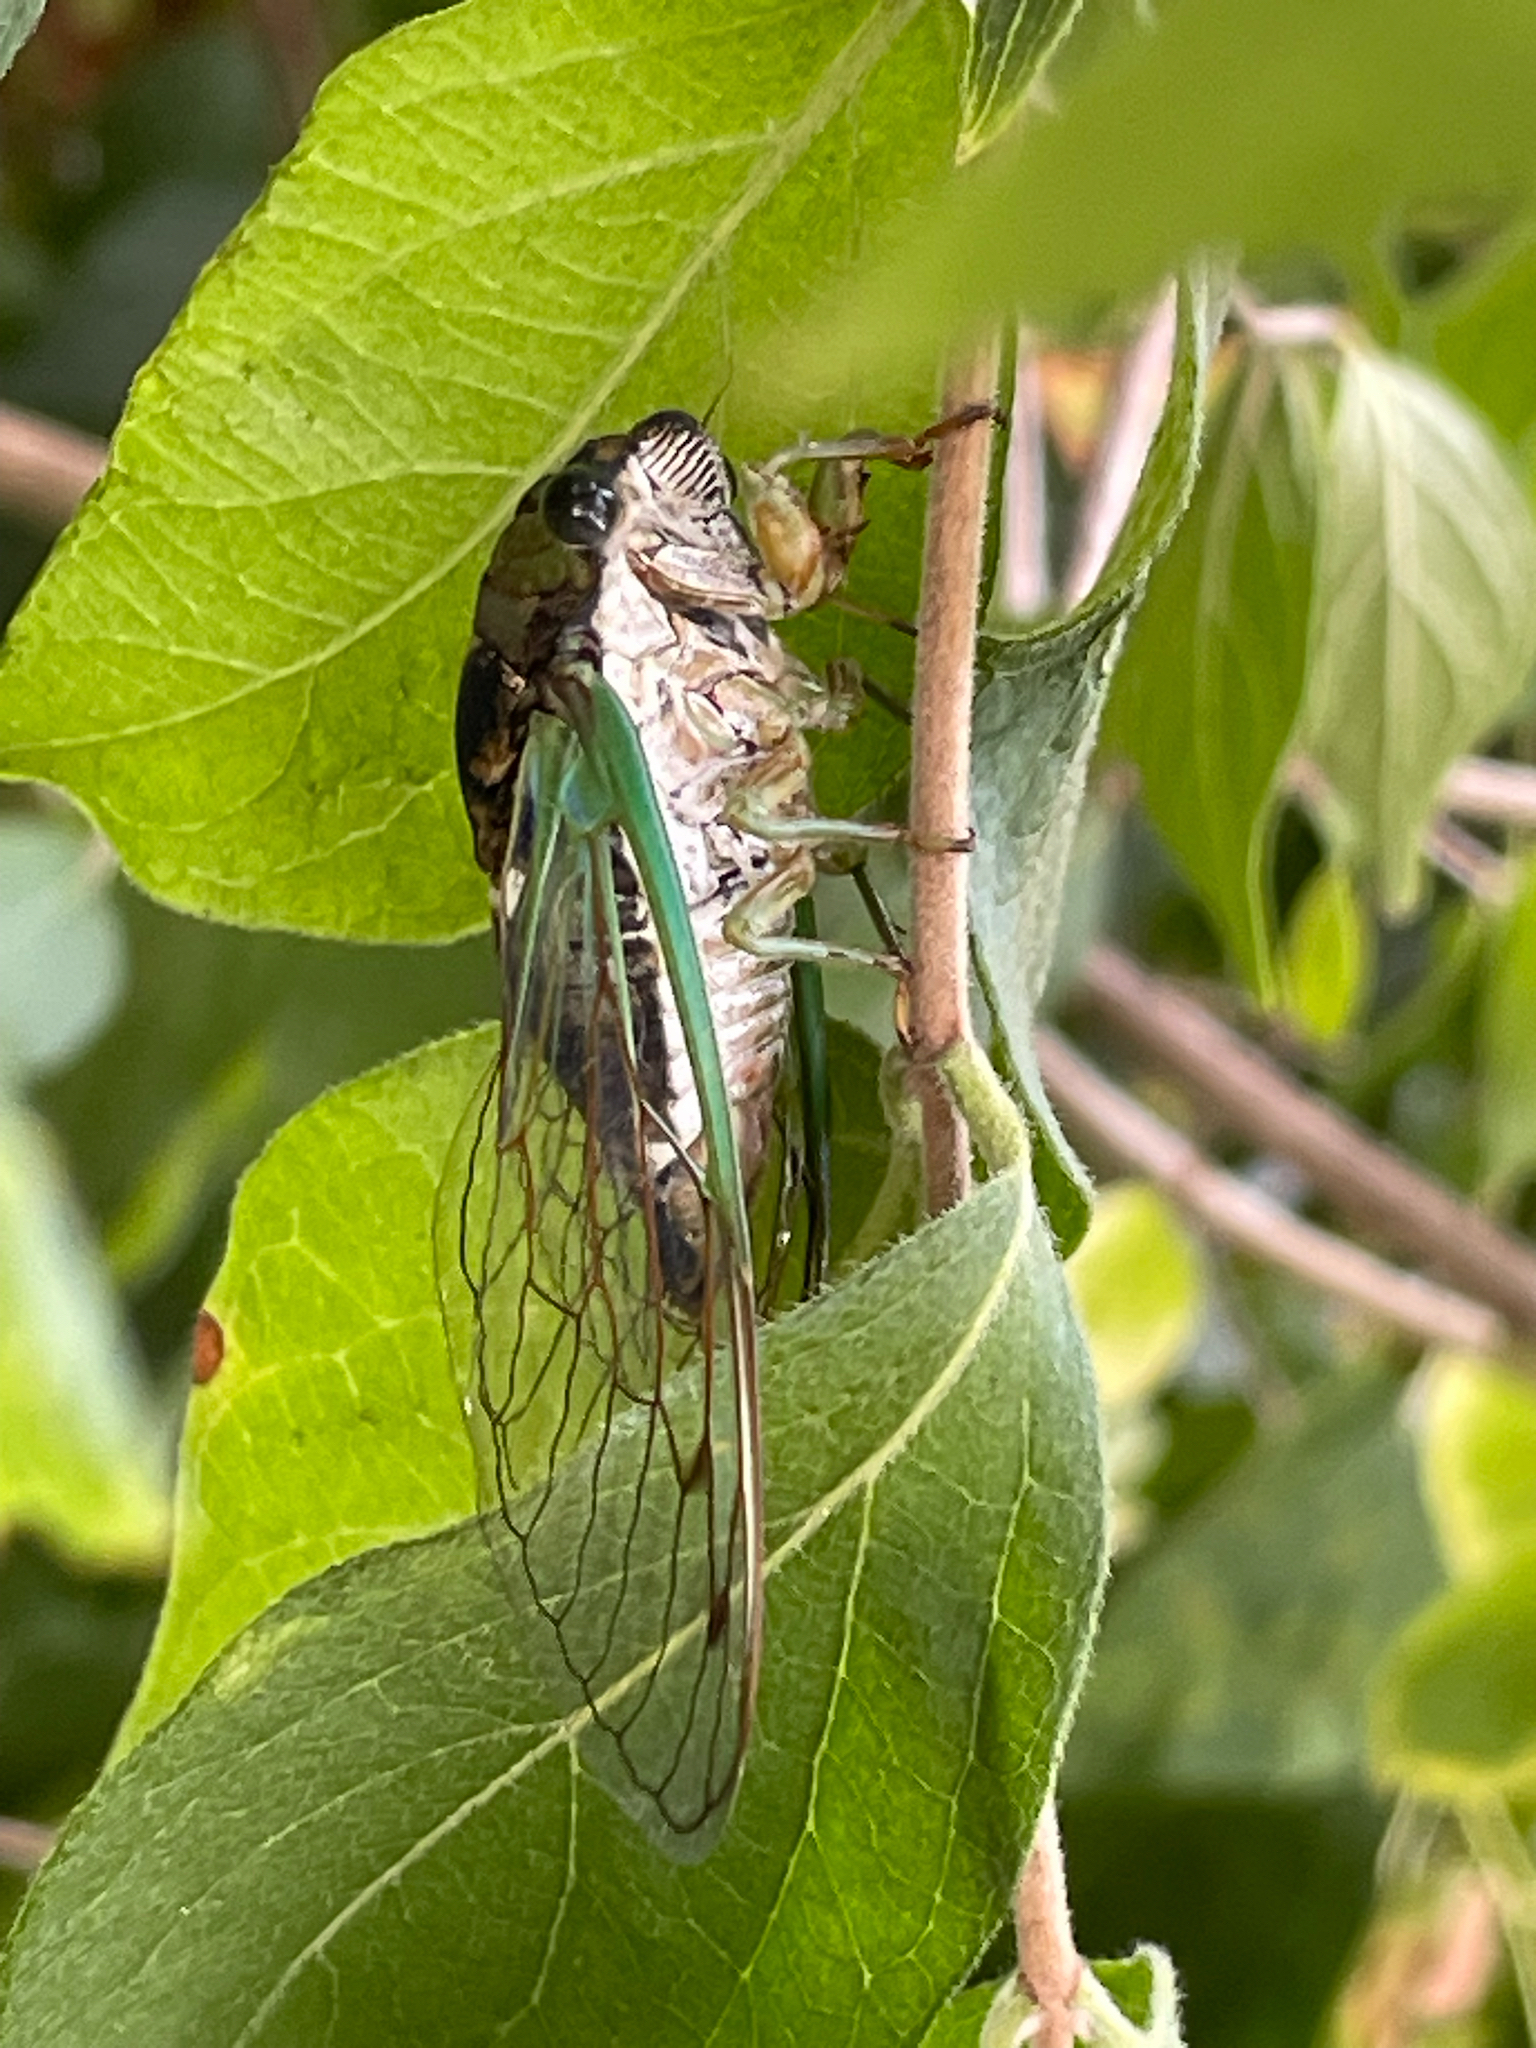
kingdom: Animalia
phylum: Arthropoda
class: Insecta
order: Hemiptera
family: Cicadidae
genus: Neotibicen
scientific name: Neotibicen tibicen
